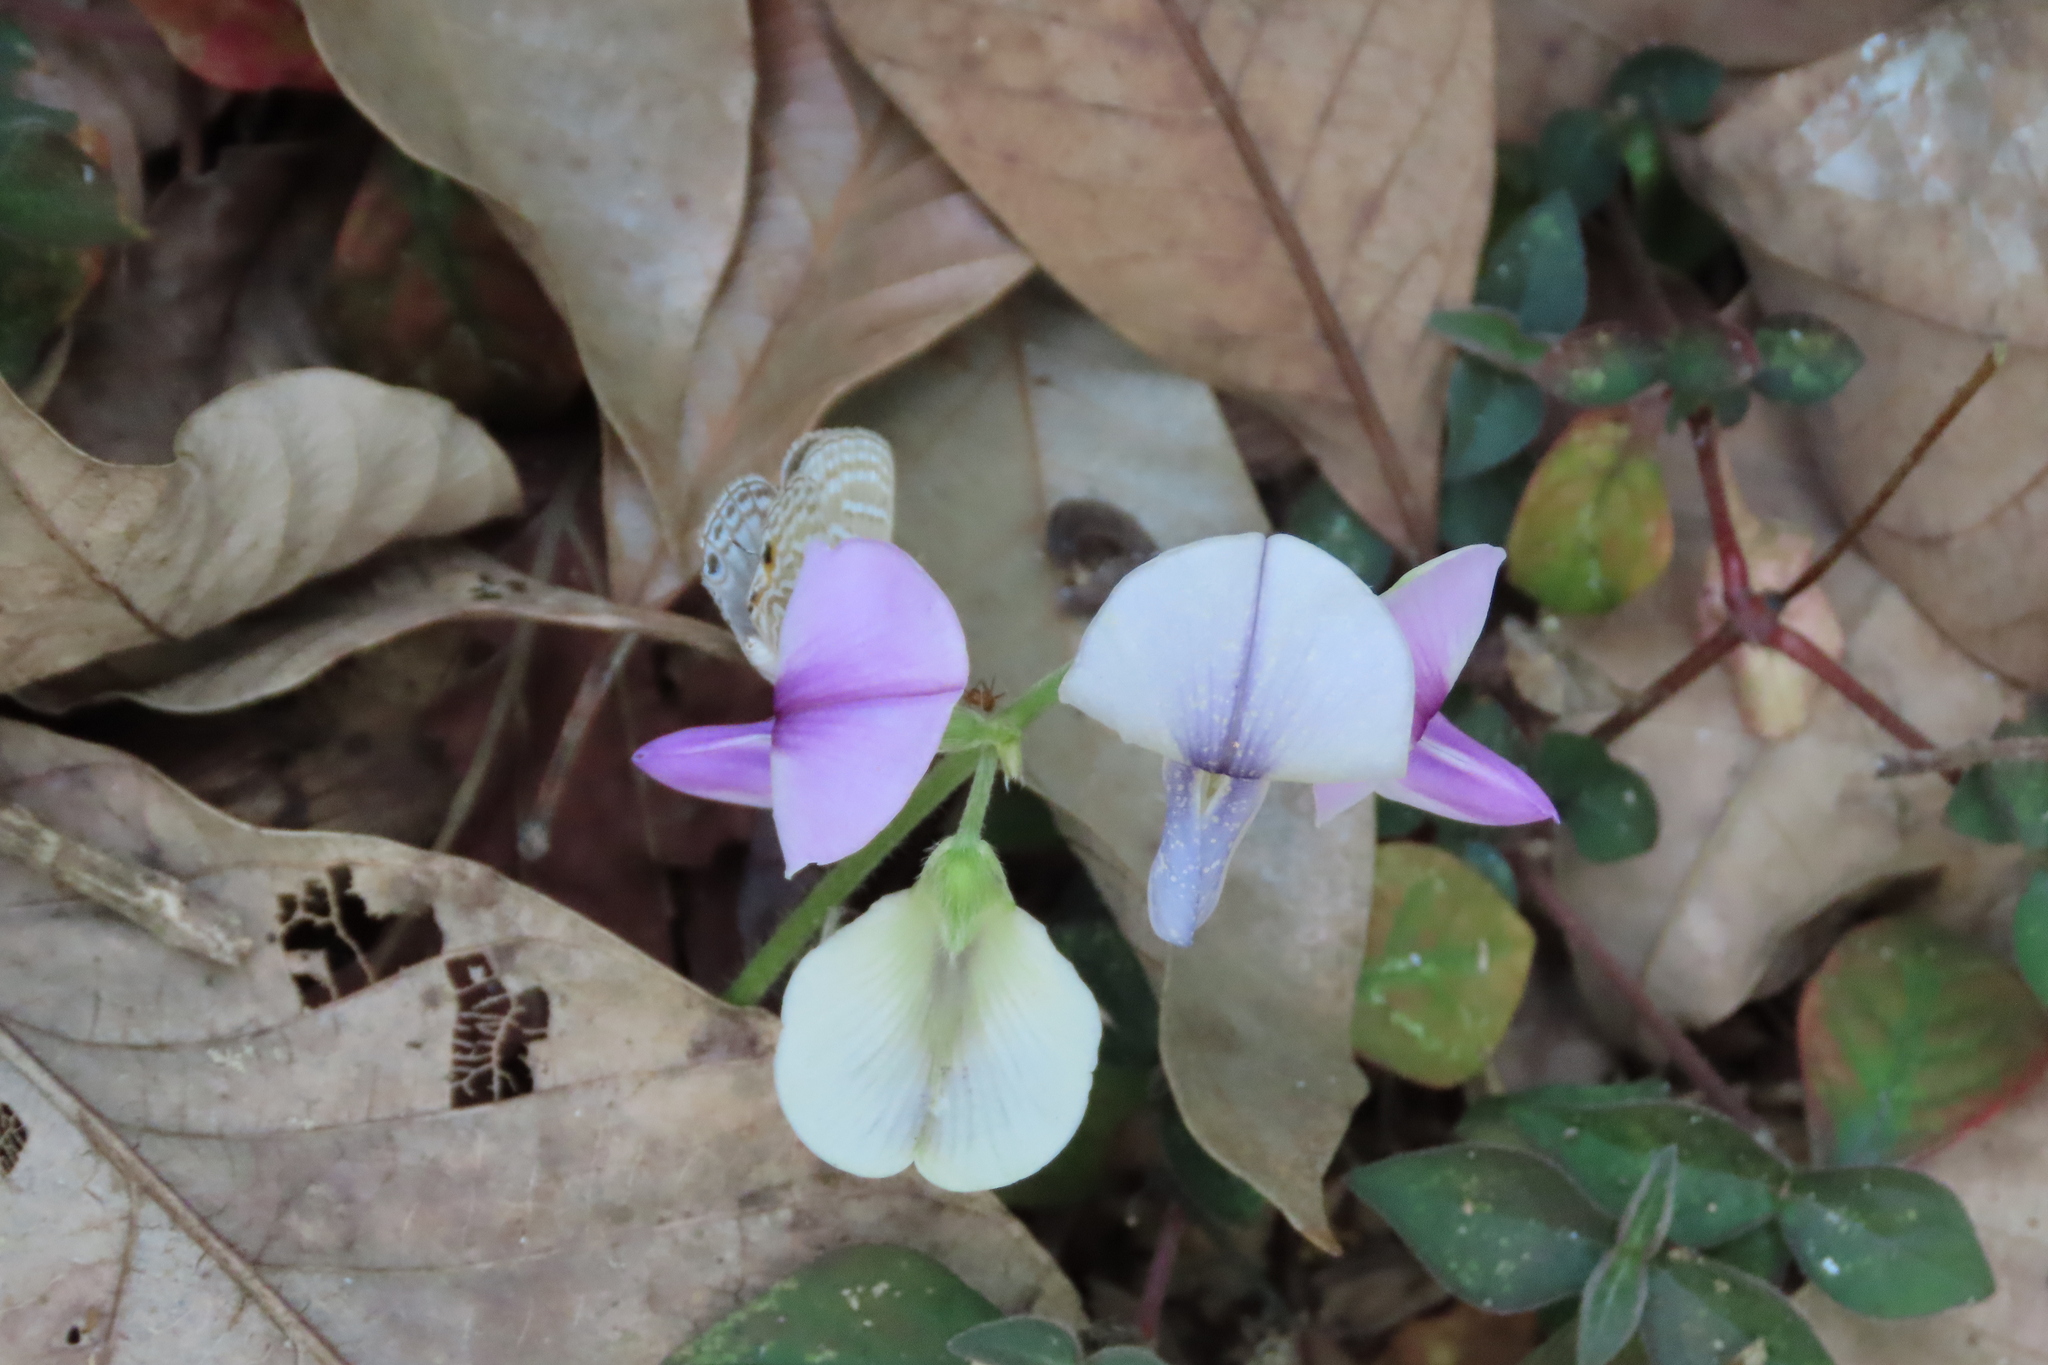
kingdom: Animalia
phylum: Arthropoda
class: Insecta
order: Lepidoptera
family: Lycaenidae
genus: Jamides
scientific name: Jamides celeno
